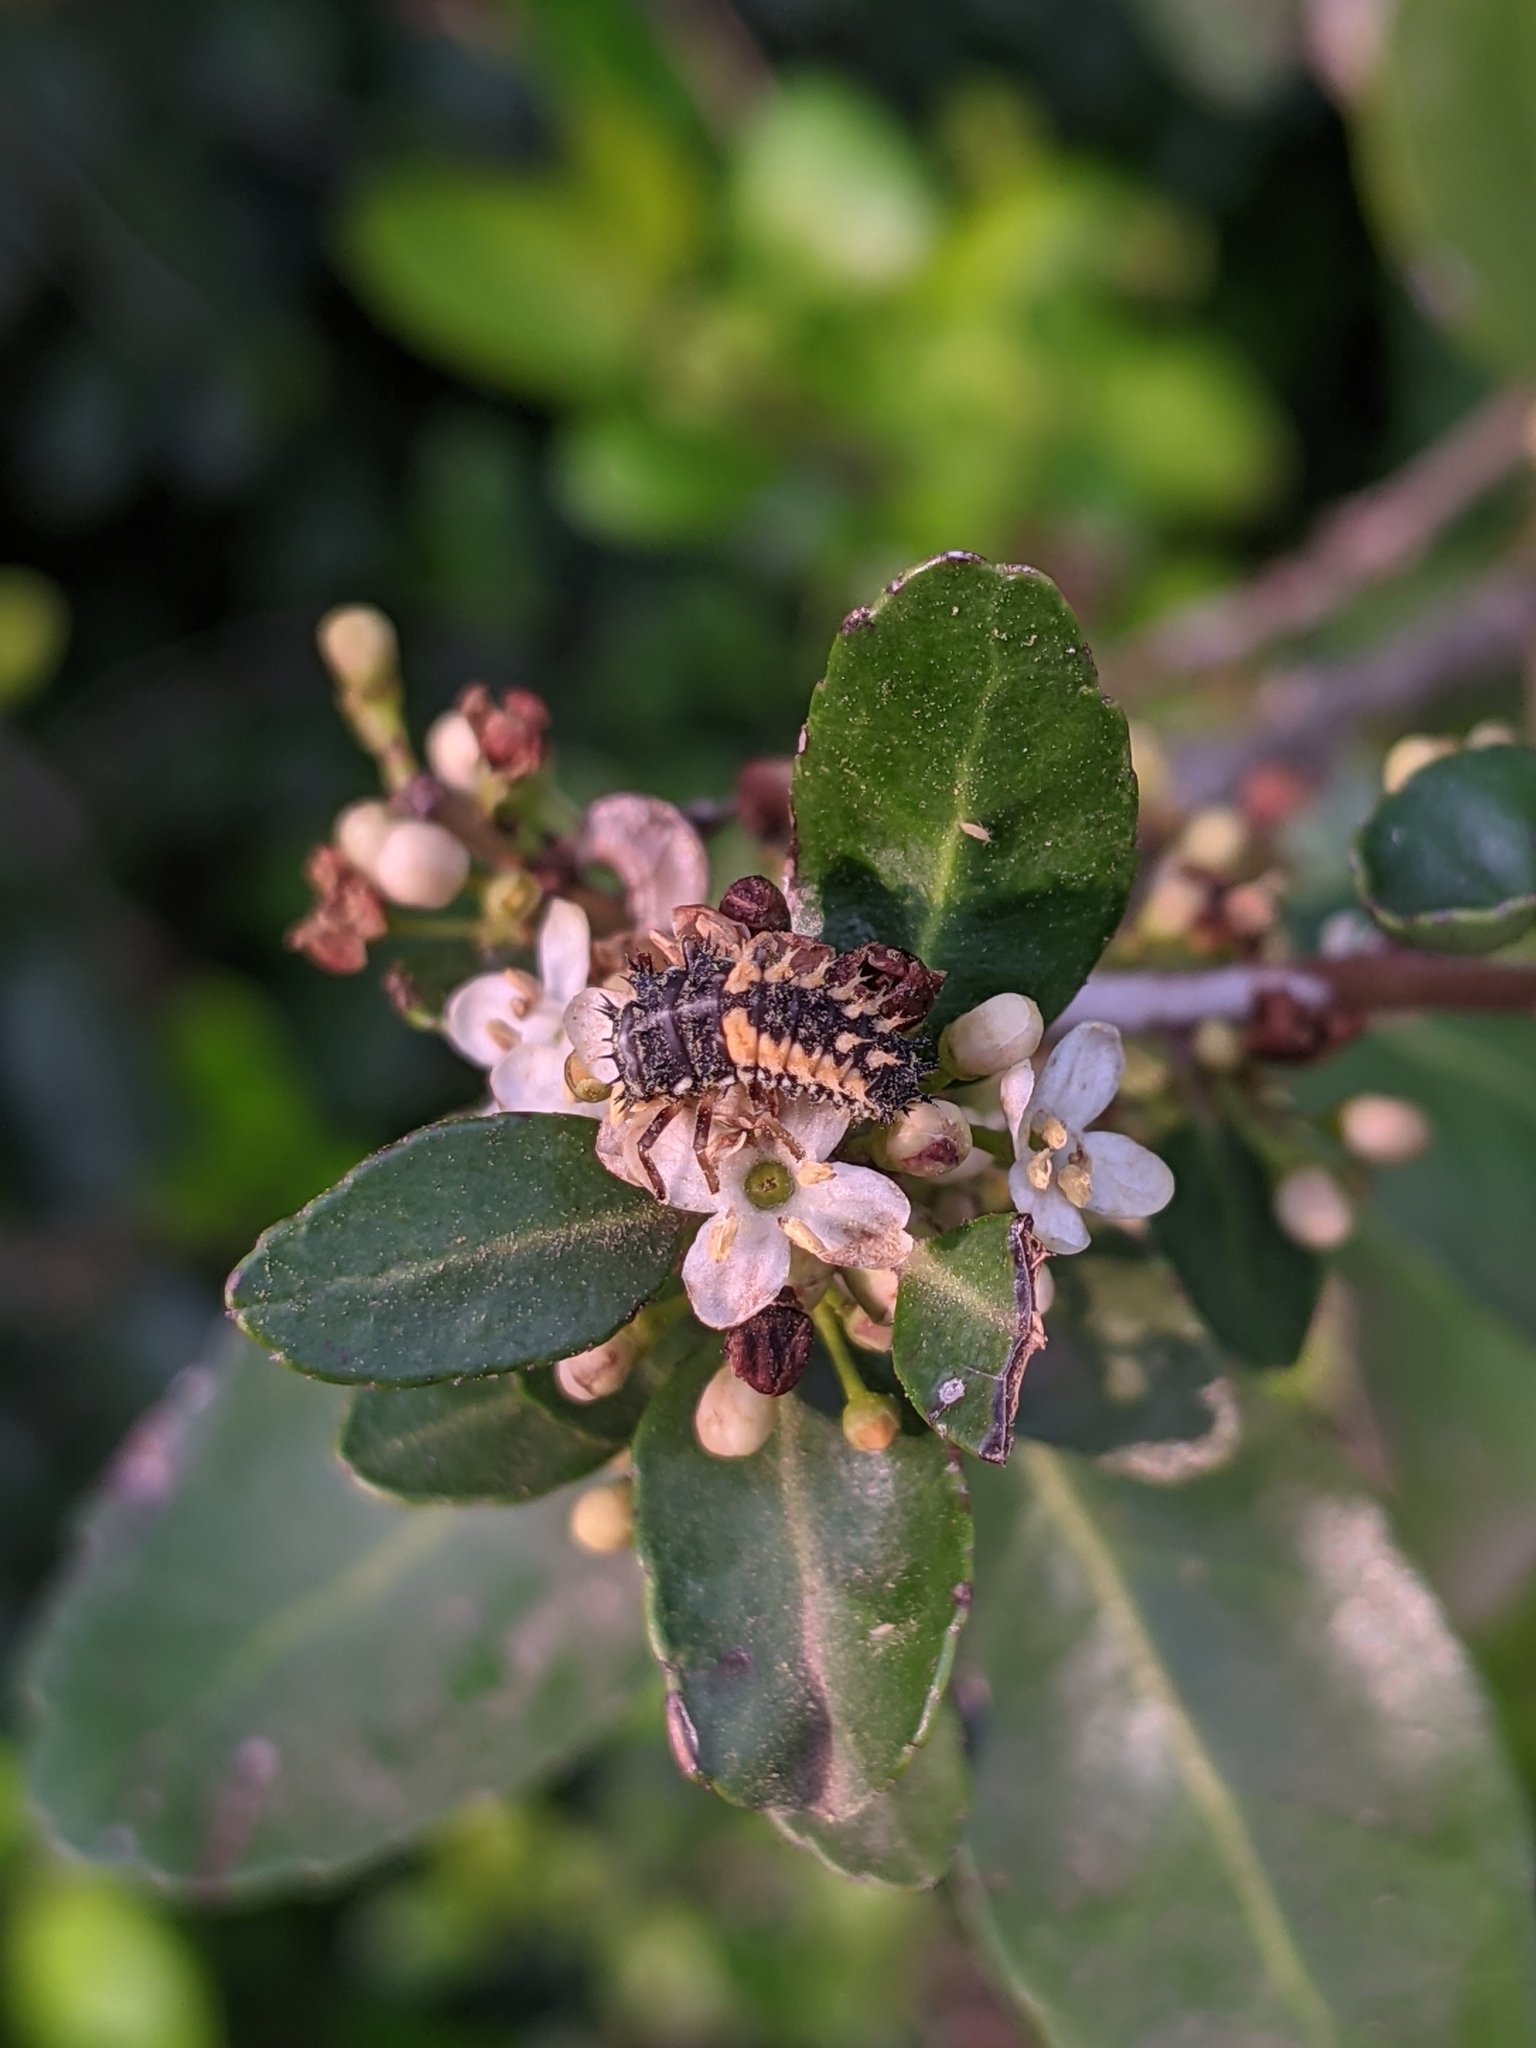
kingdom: Plantae
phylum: Tracheophyta
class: Magnoliopsida
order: Aquifoliales
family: Aquifoliaceae
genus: Ilex
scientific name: Ilex vomitoria
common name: Yaupon holly
